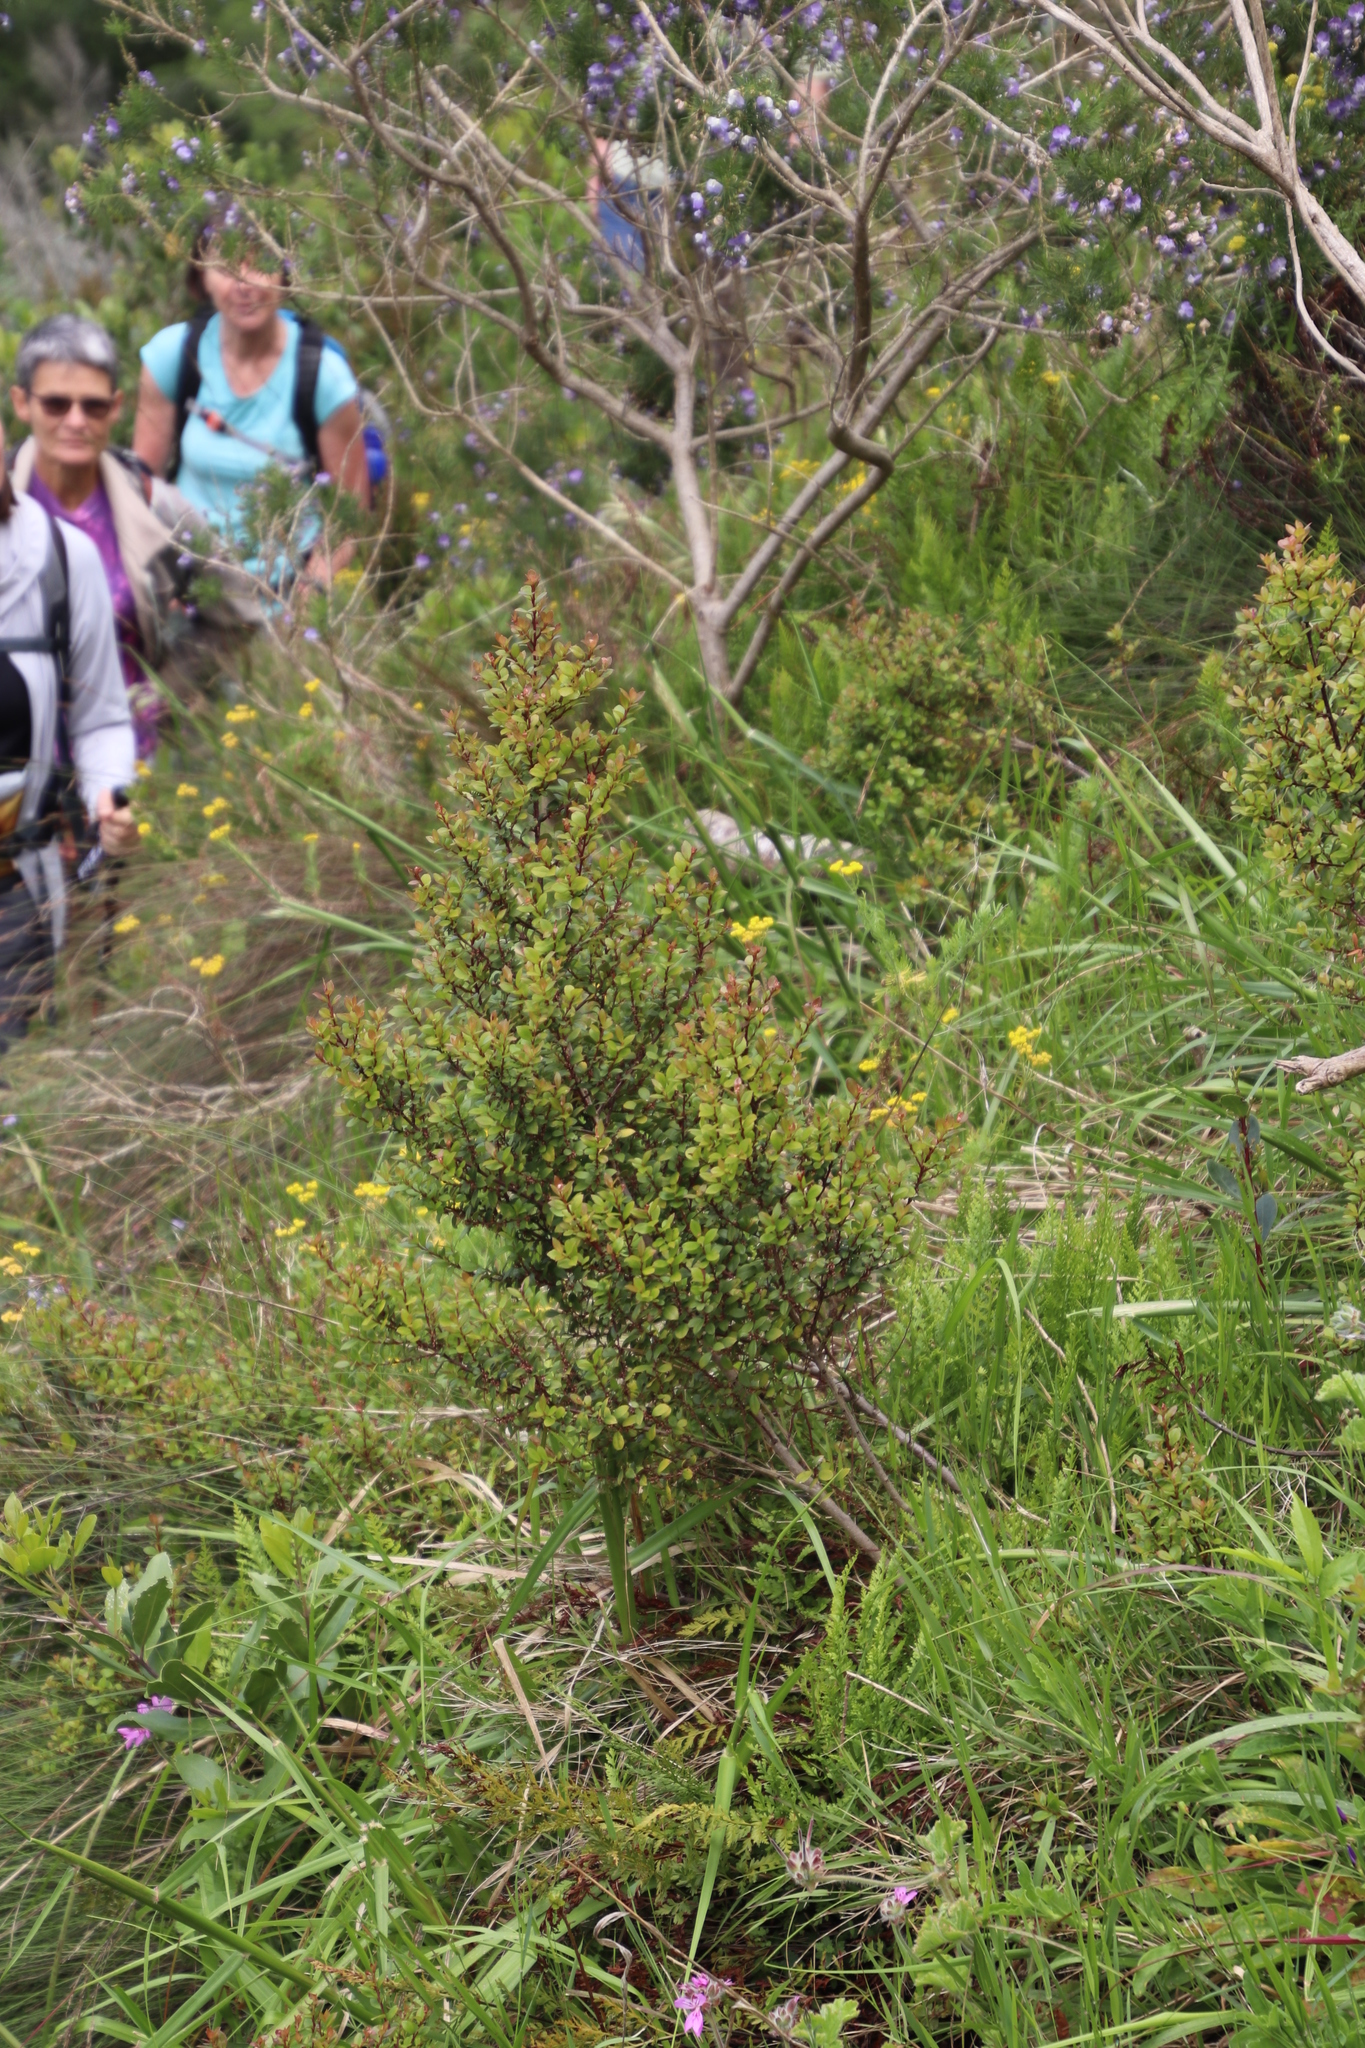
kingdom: Plantae
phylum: Tracheophyta
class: Magnoliopsida
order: Ericales
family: Primulaceae
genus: Myrsine
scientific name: Myrsine africana
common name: African-boxwood
